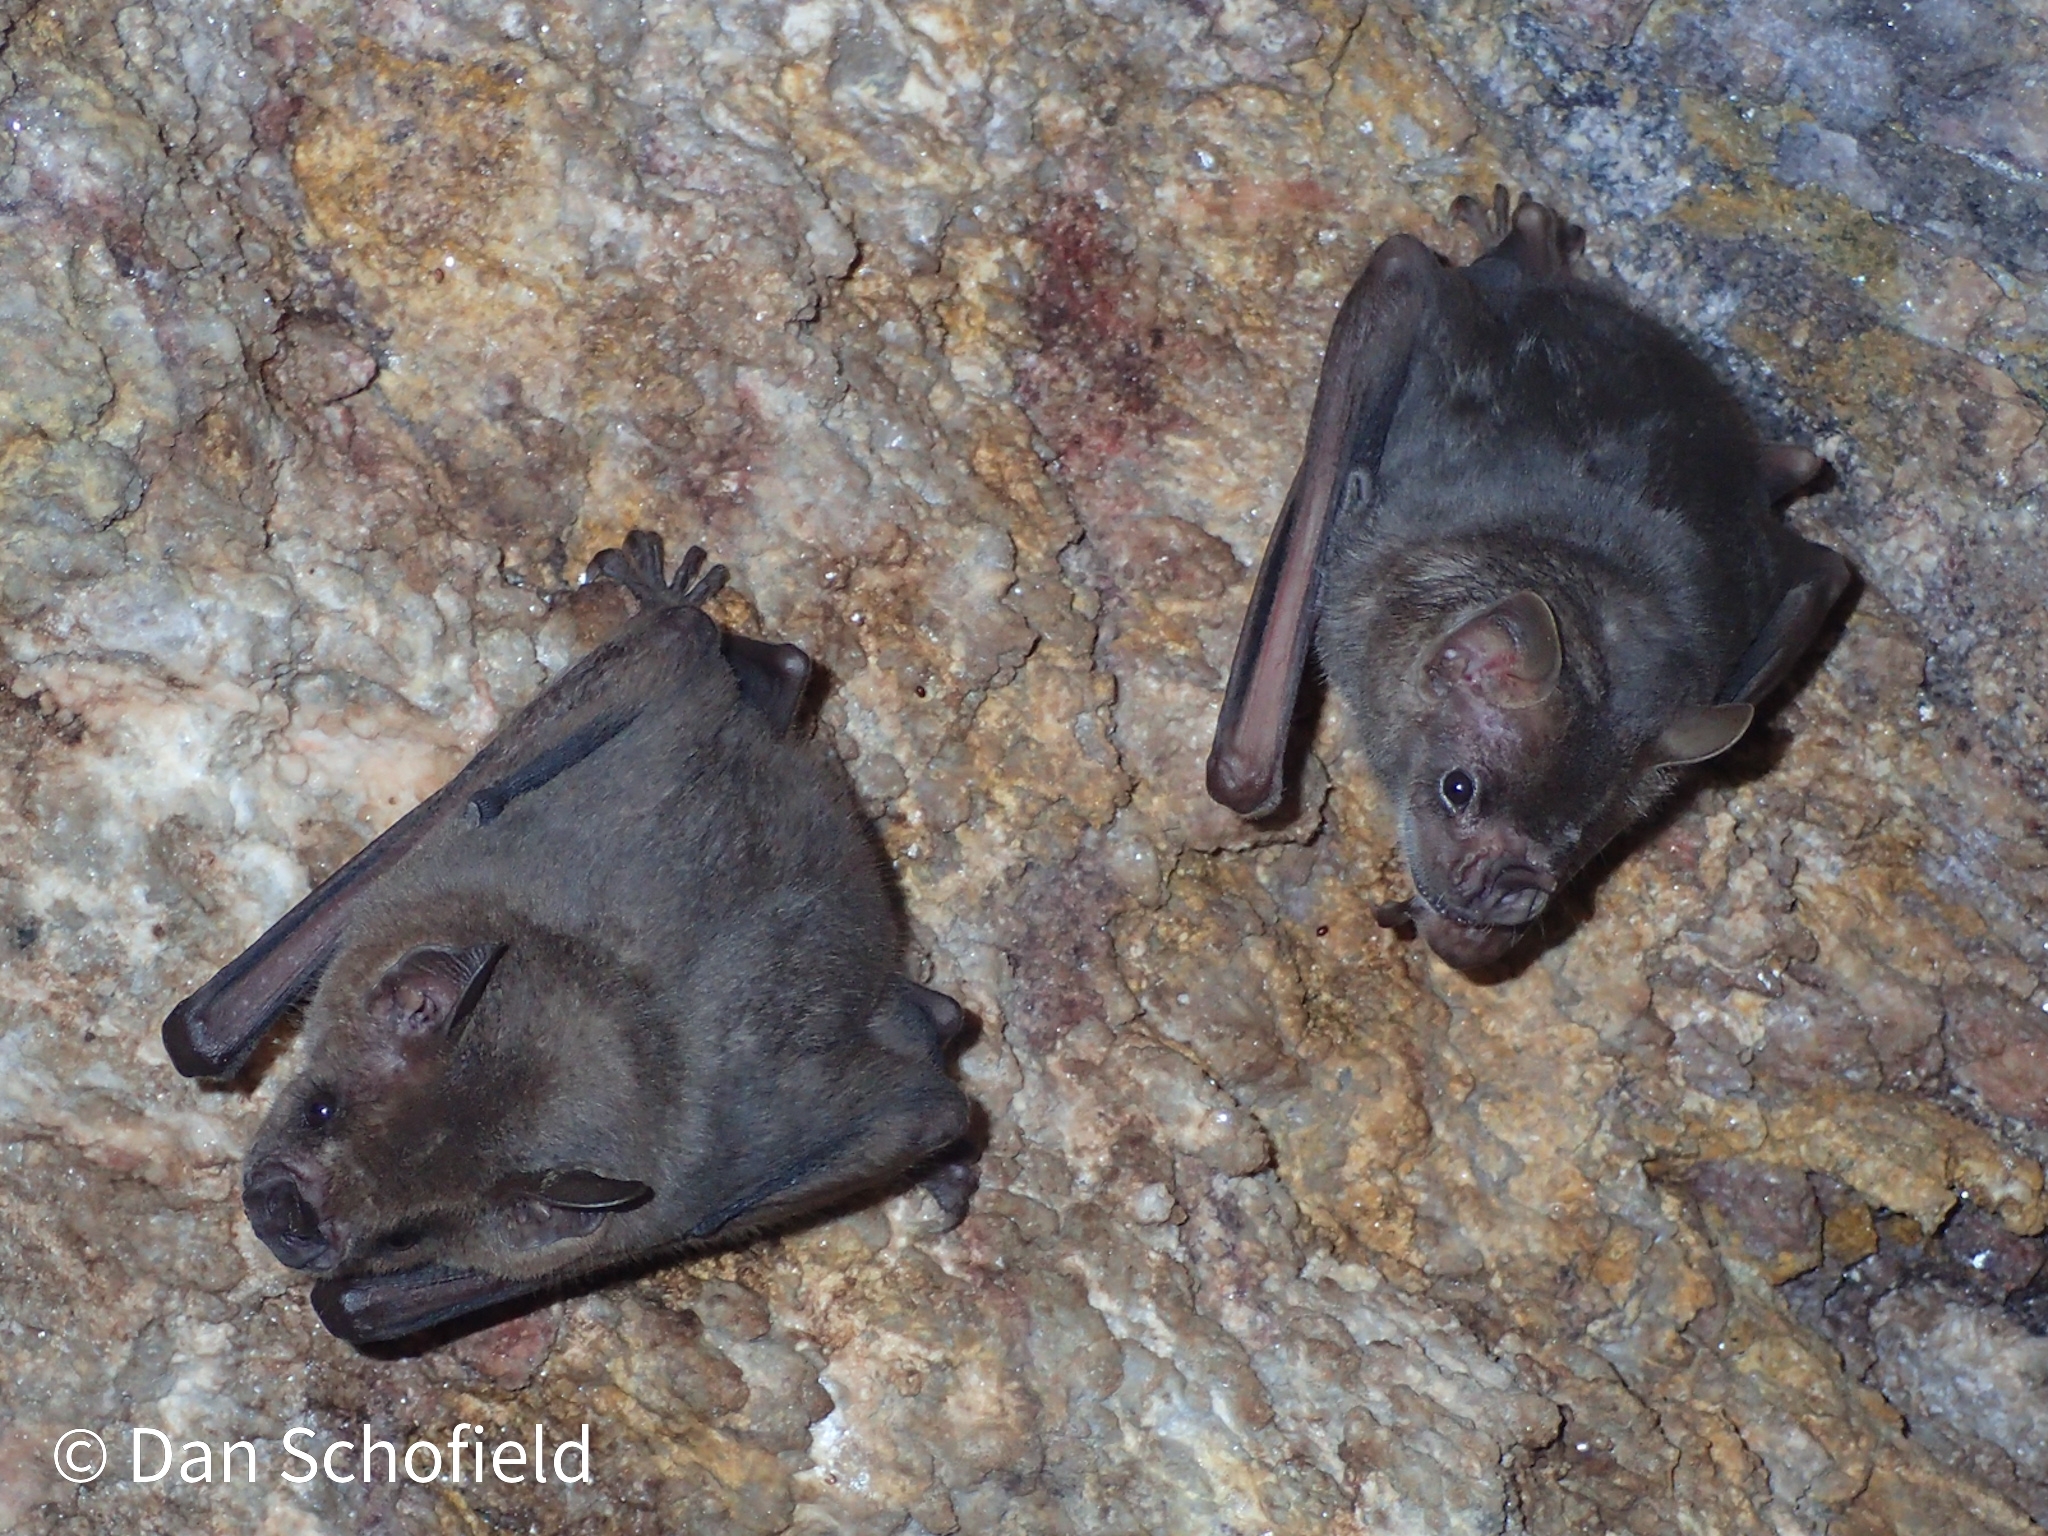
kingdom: Animalia
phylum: Chordata
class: Mammalia
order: Chiroptera
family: Phyllostomidae
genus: Artibeus
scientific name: Artibeus jamaicensis
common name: Jamaican fruit-eating bat
